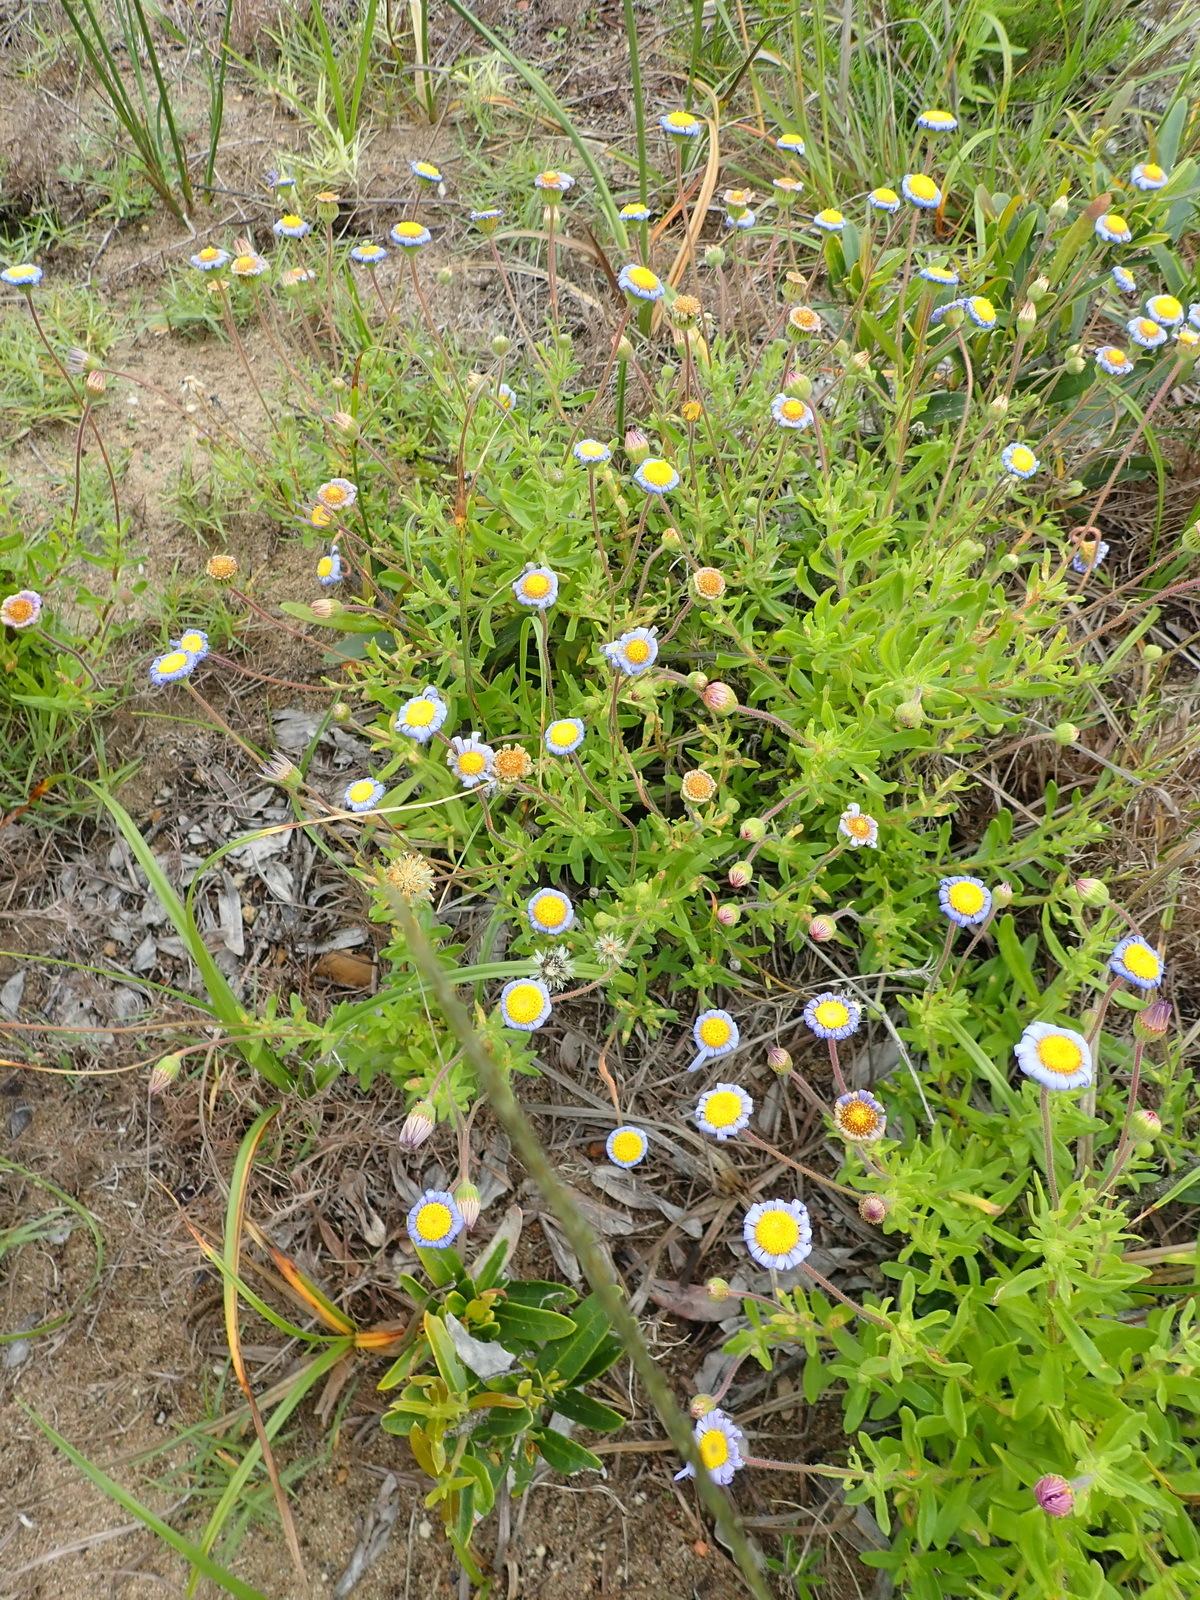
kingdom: Plantae
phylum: Tracheophyta
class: Magnoliopsida
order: Asterales
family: Asteraceae
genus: Felicia
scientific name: Felicia amoena
